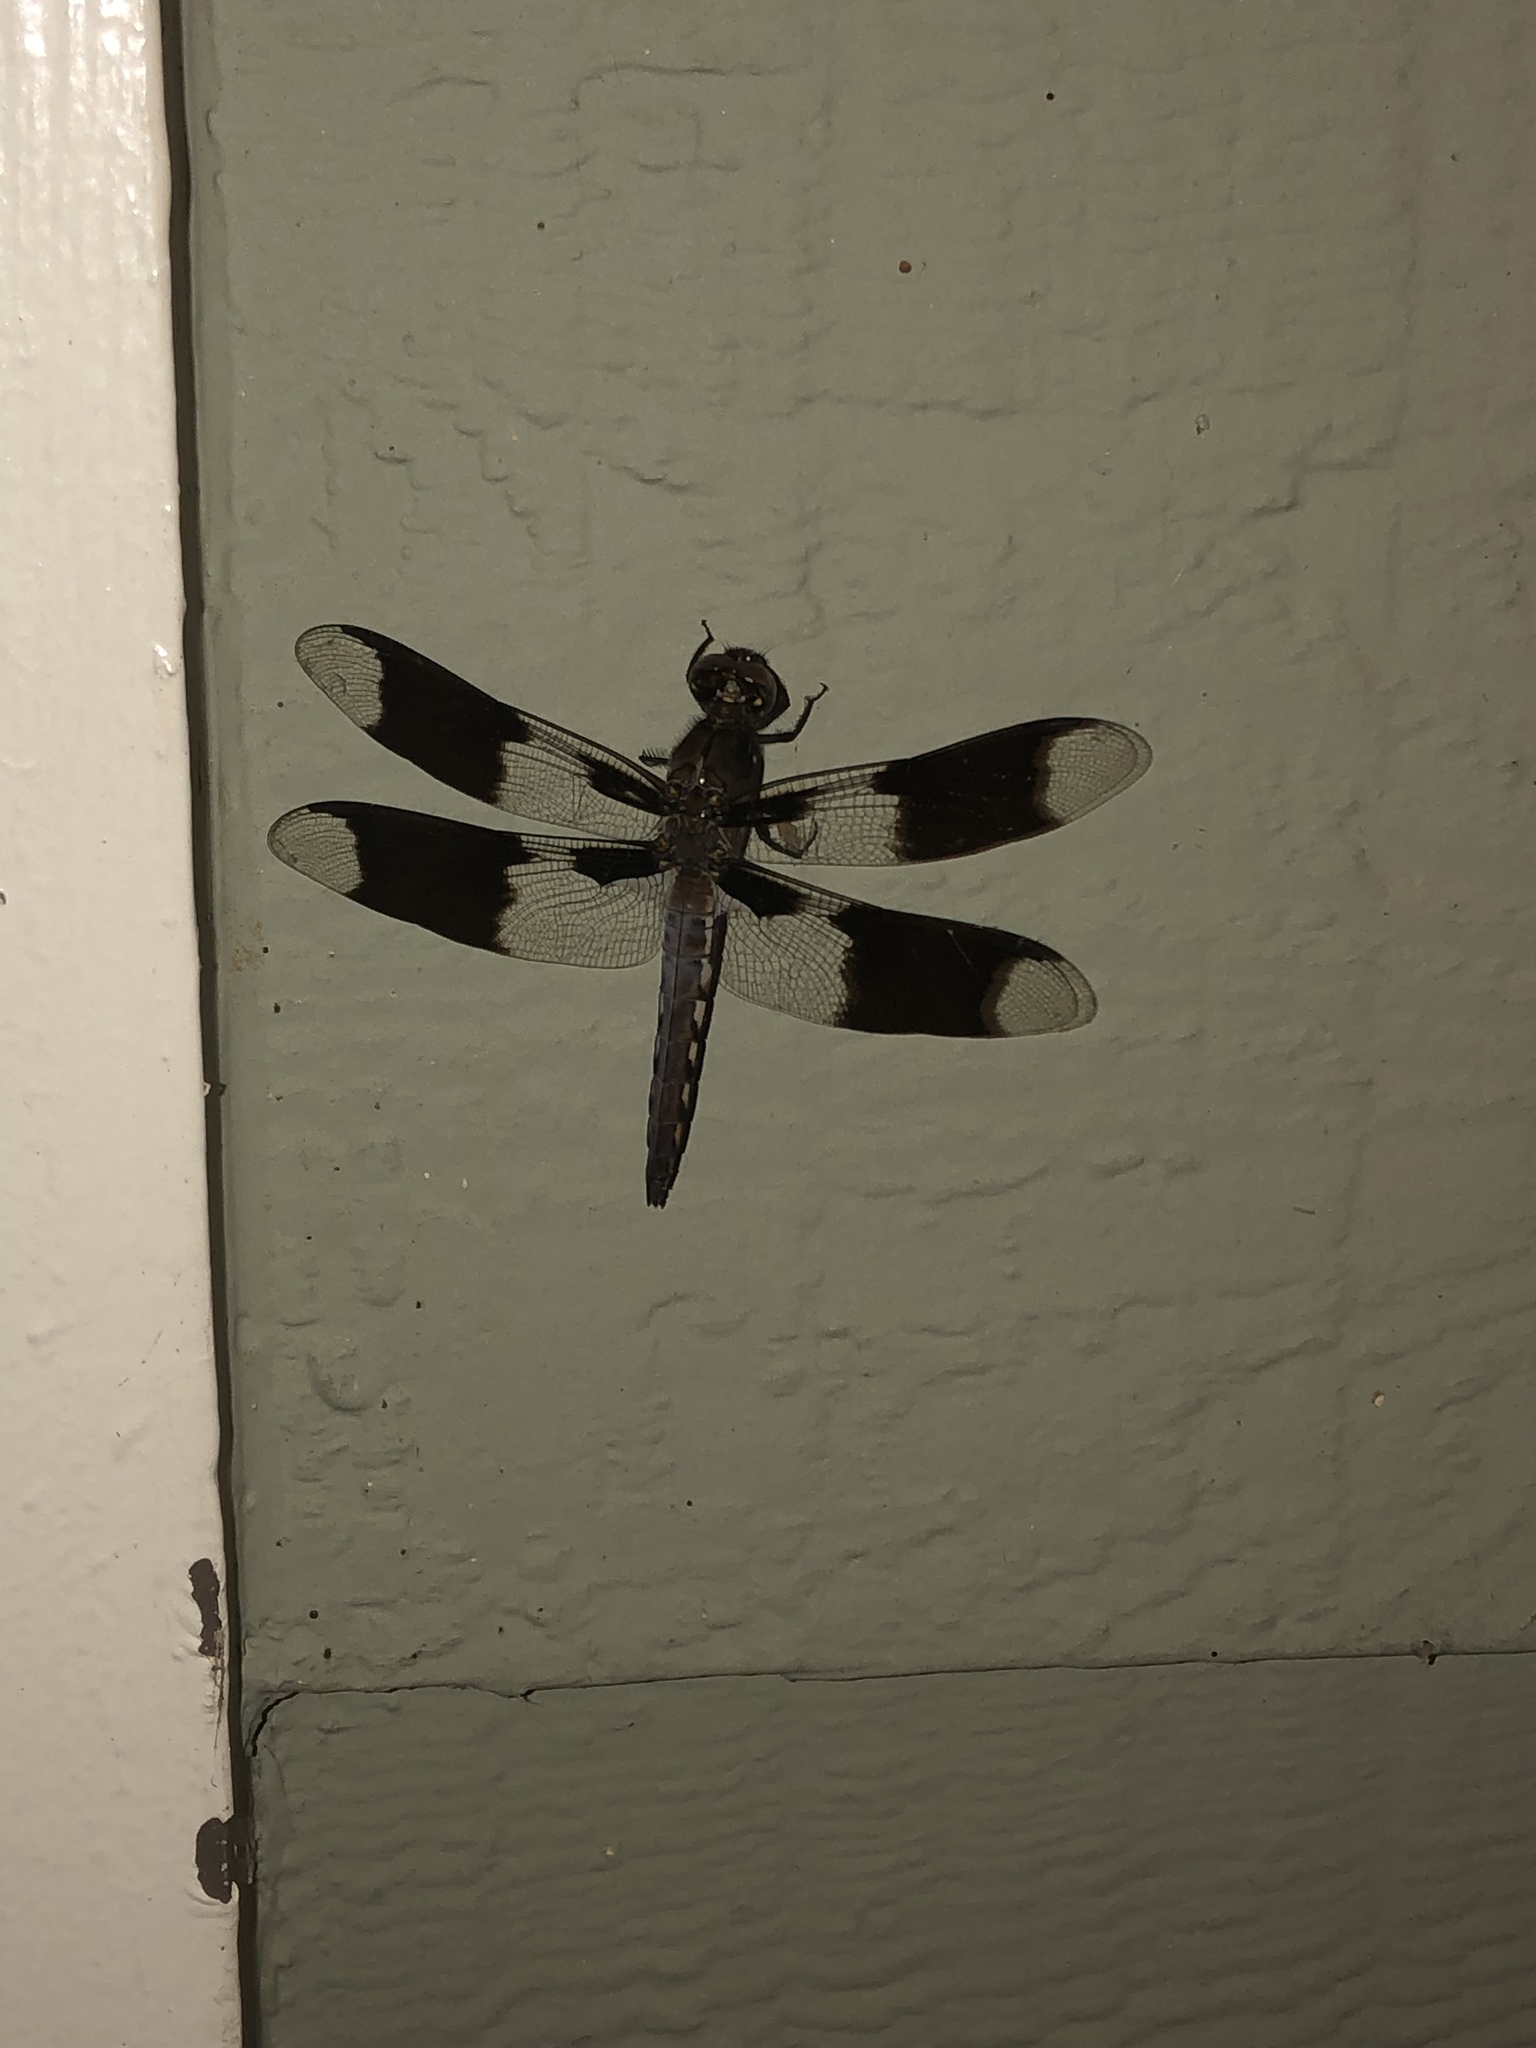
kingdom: Animalia
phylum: Arthropoda
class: Insecta
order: Odonata
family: Libellulidae
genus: Plathemis
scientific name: Plathemis lydia
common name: Common whitetail
